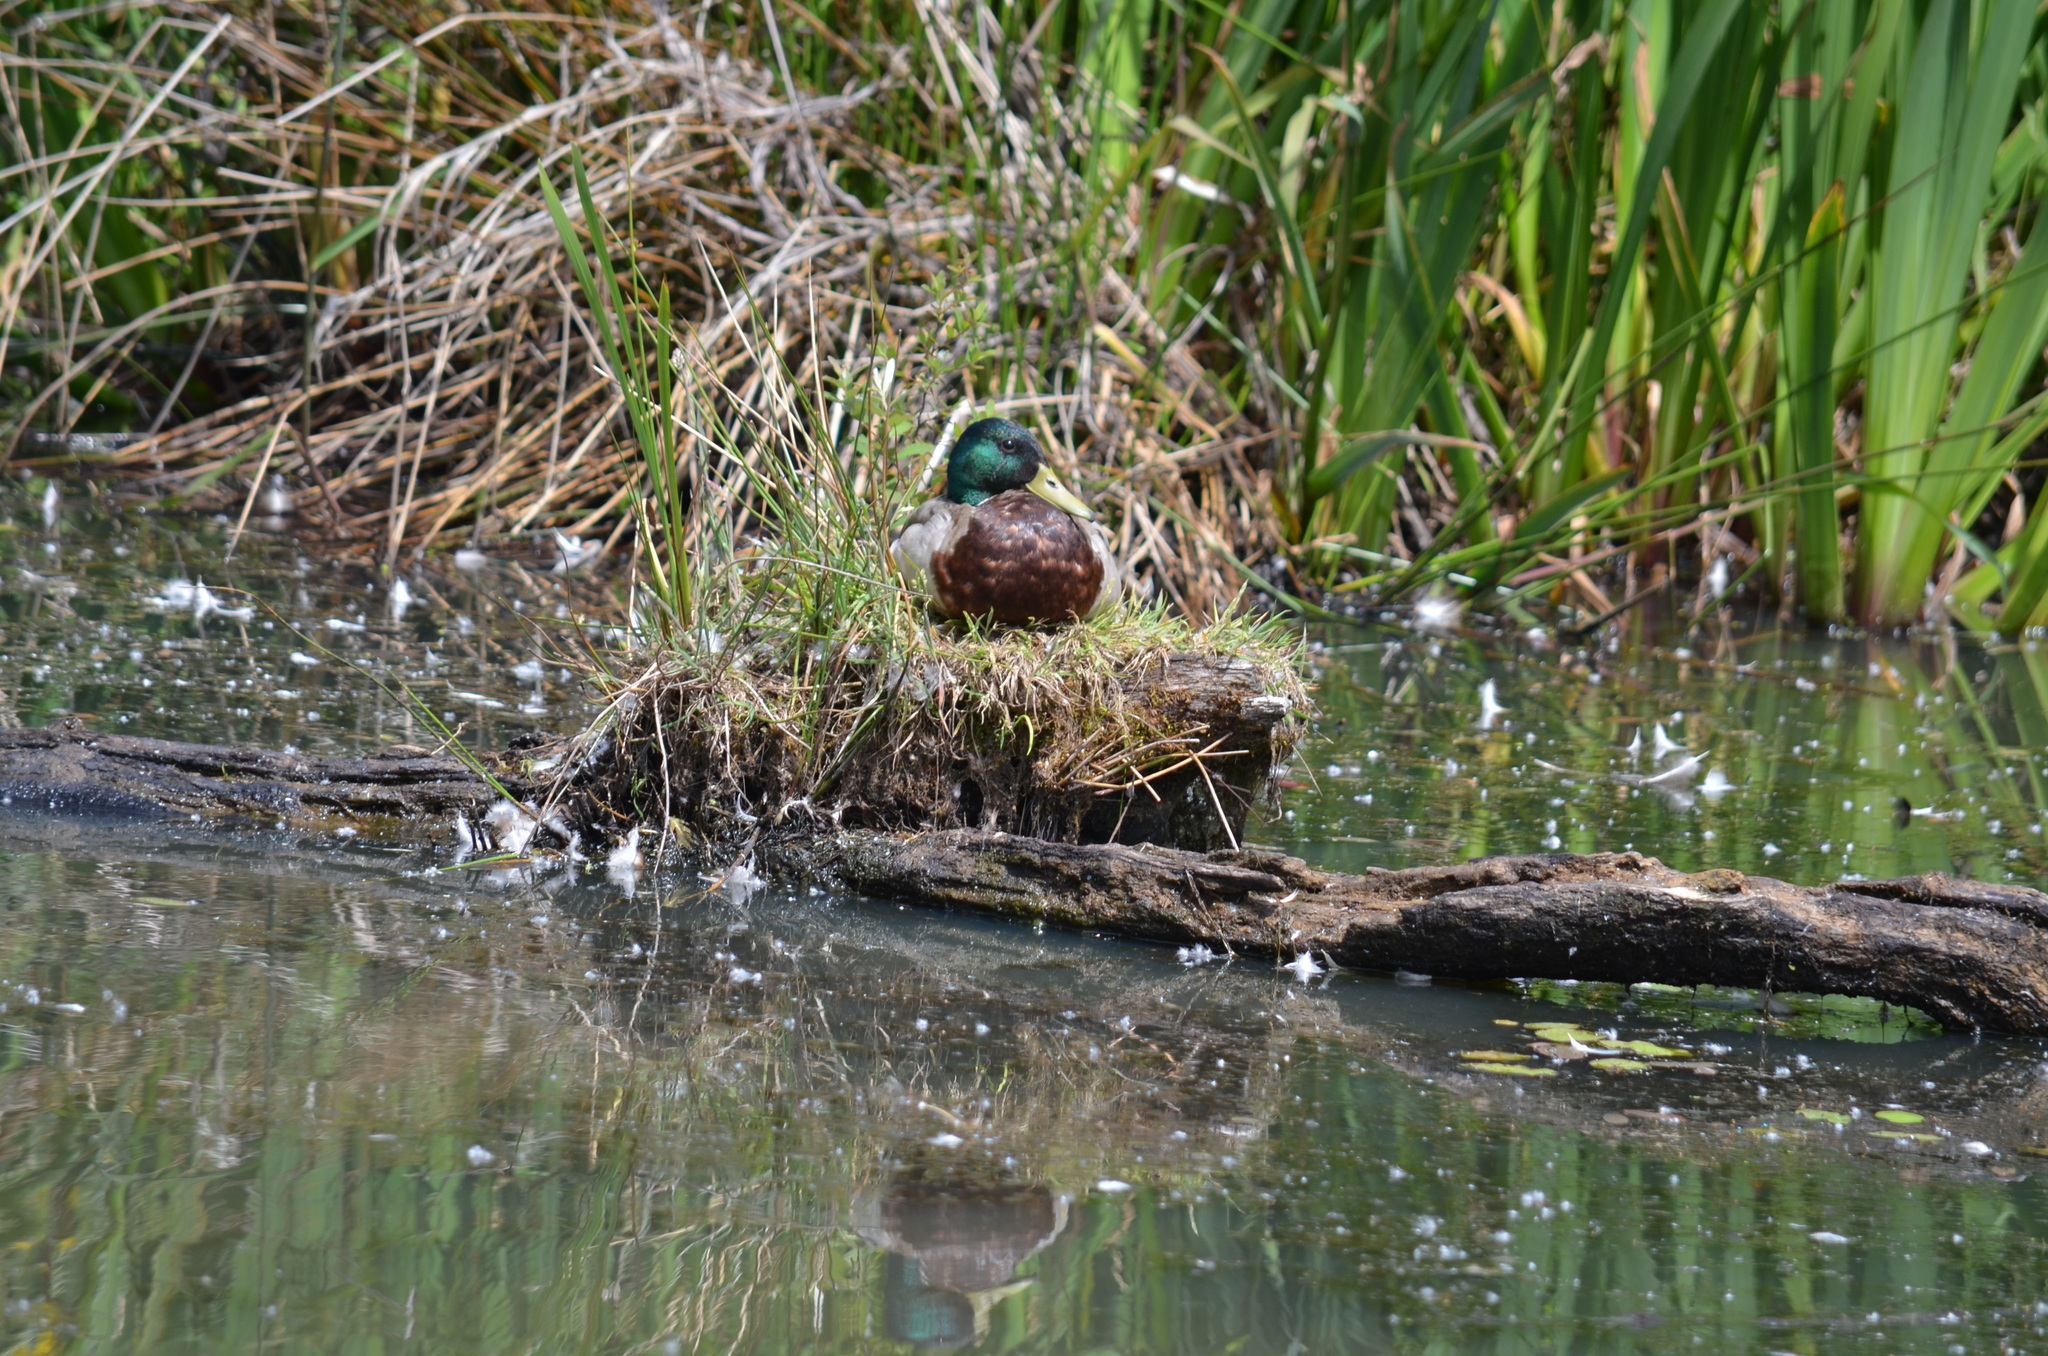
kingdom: Animalia
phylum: Chordata
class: Aves
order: Anseriformes
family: Anatidae
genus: Anas
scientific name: Anas platyrhynchos
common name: Mallard
